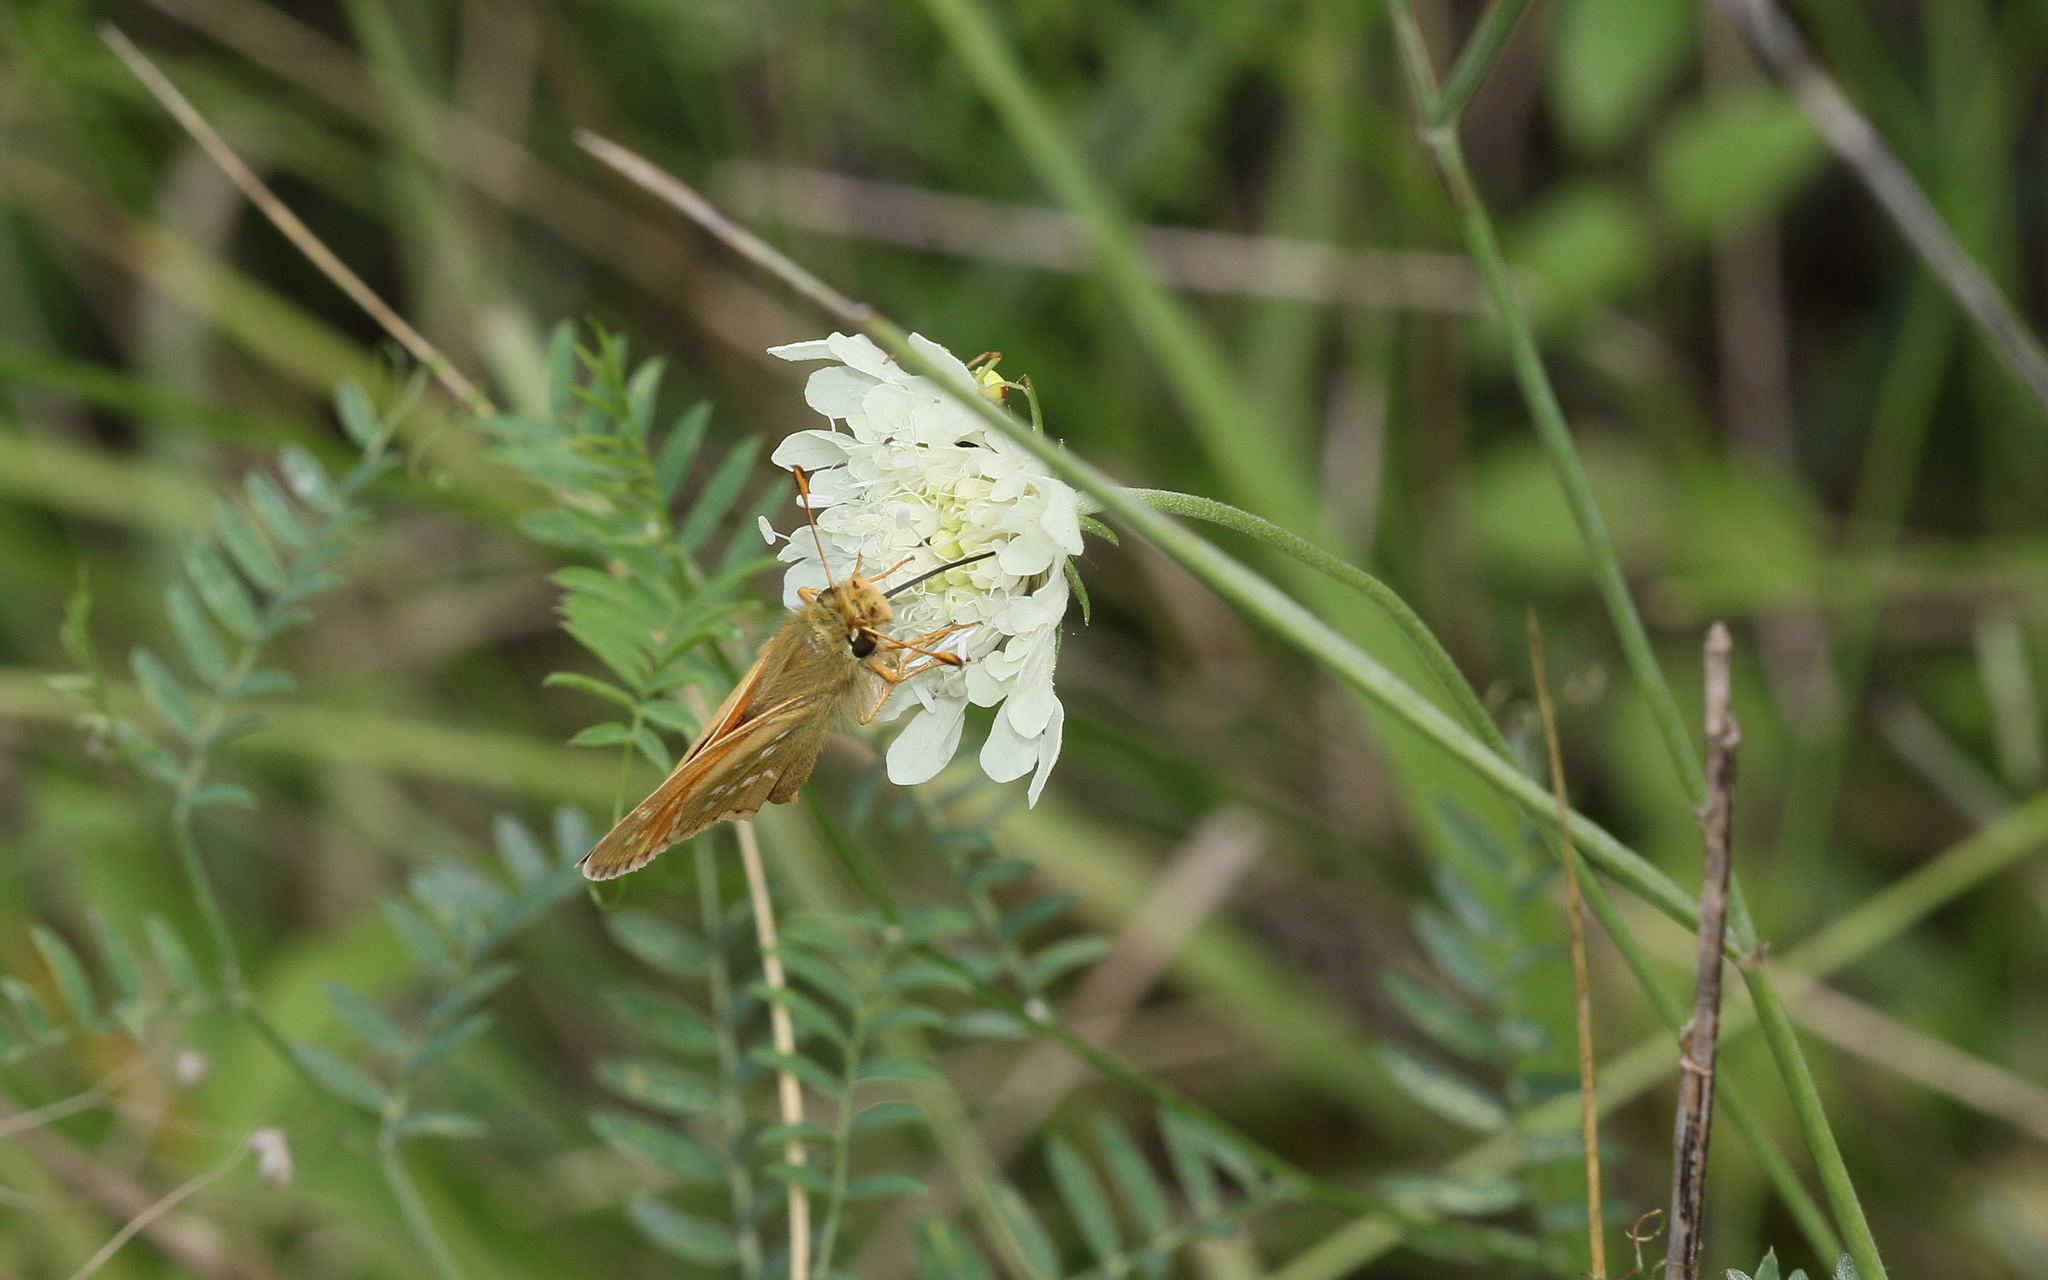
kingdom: Animalia
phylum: Arthropoda
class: Insecta
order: Lepidoptera
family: Hesperiidae
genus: Hesperia
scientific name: Hesperia comma
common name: Common branded skipper
